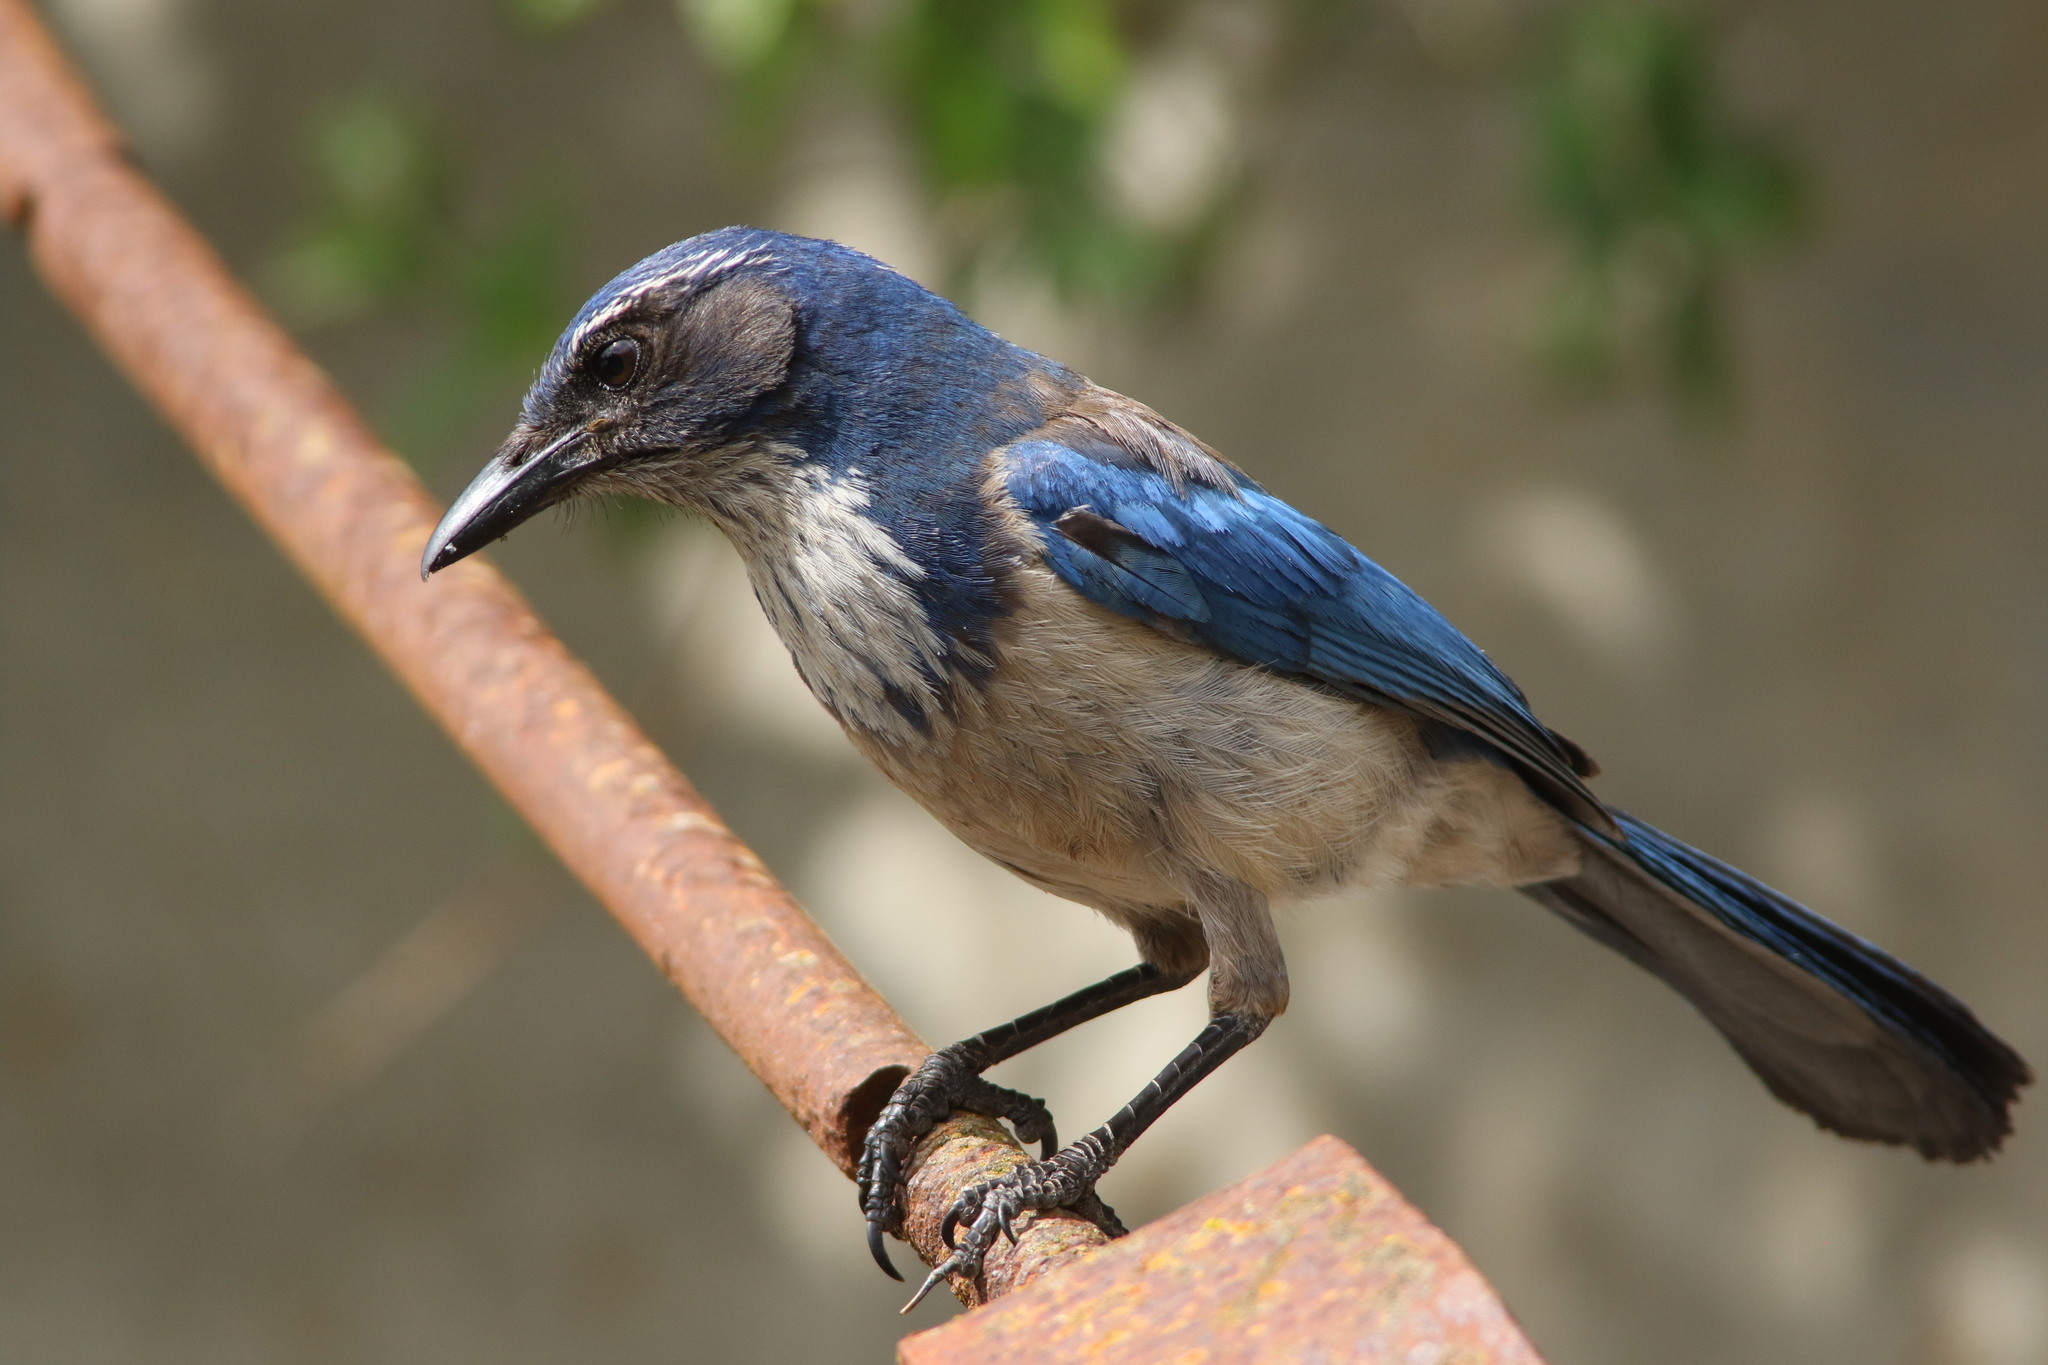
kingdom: Animalia
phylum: Chordata
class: Aves
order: Passeriformes
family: Corvidae
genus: Aphelocoma
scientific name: Aphelocoma californica
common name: California scrub-jay
